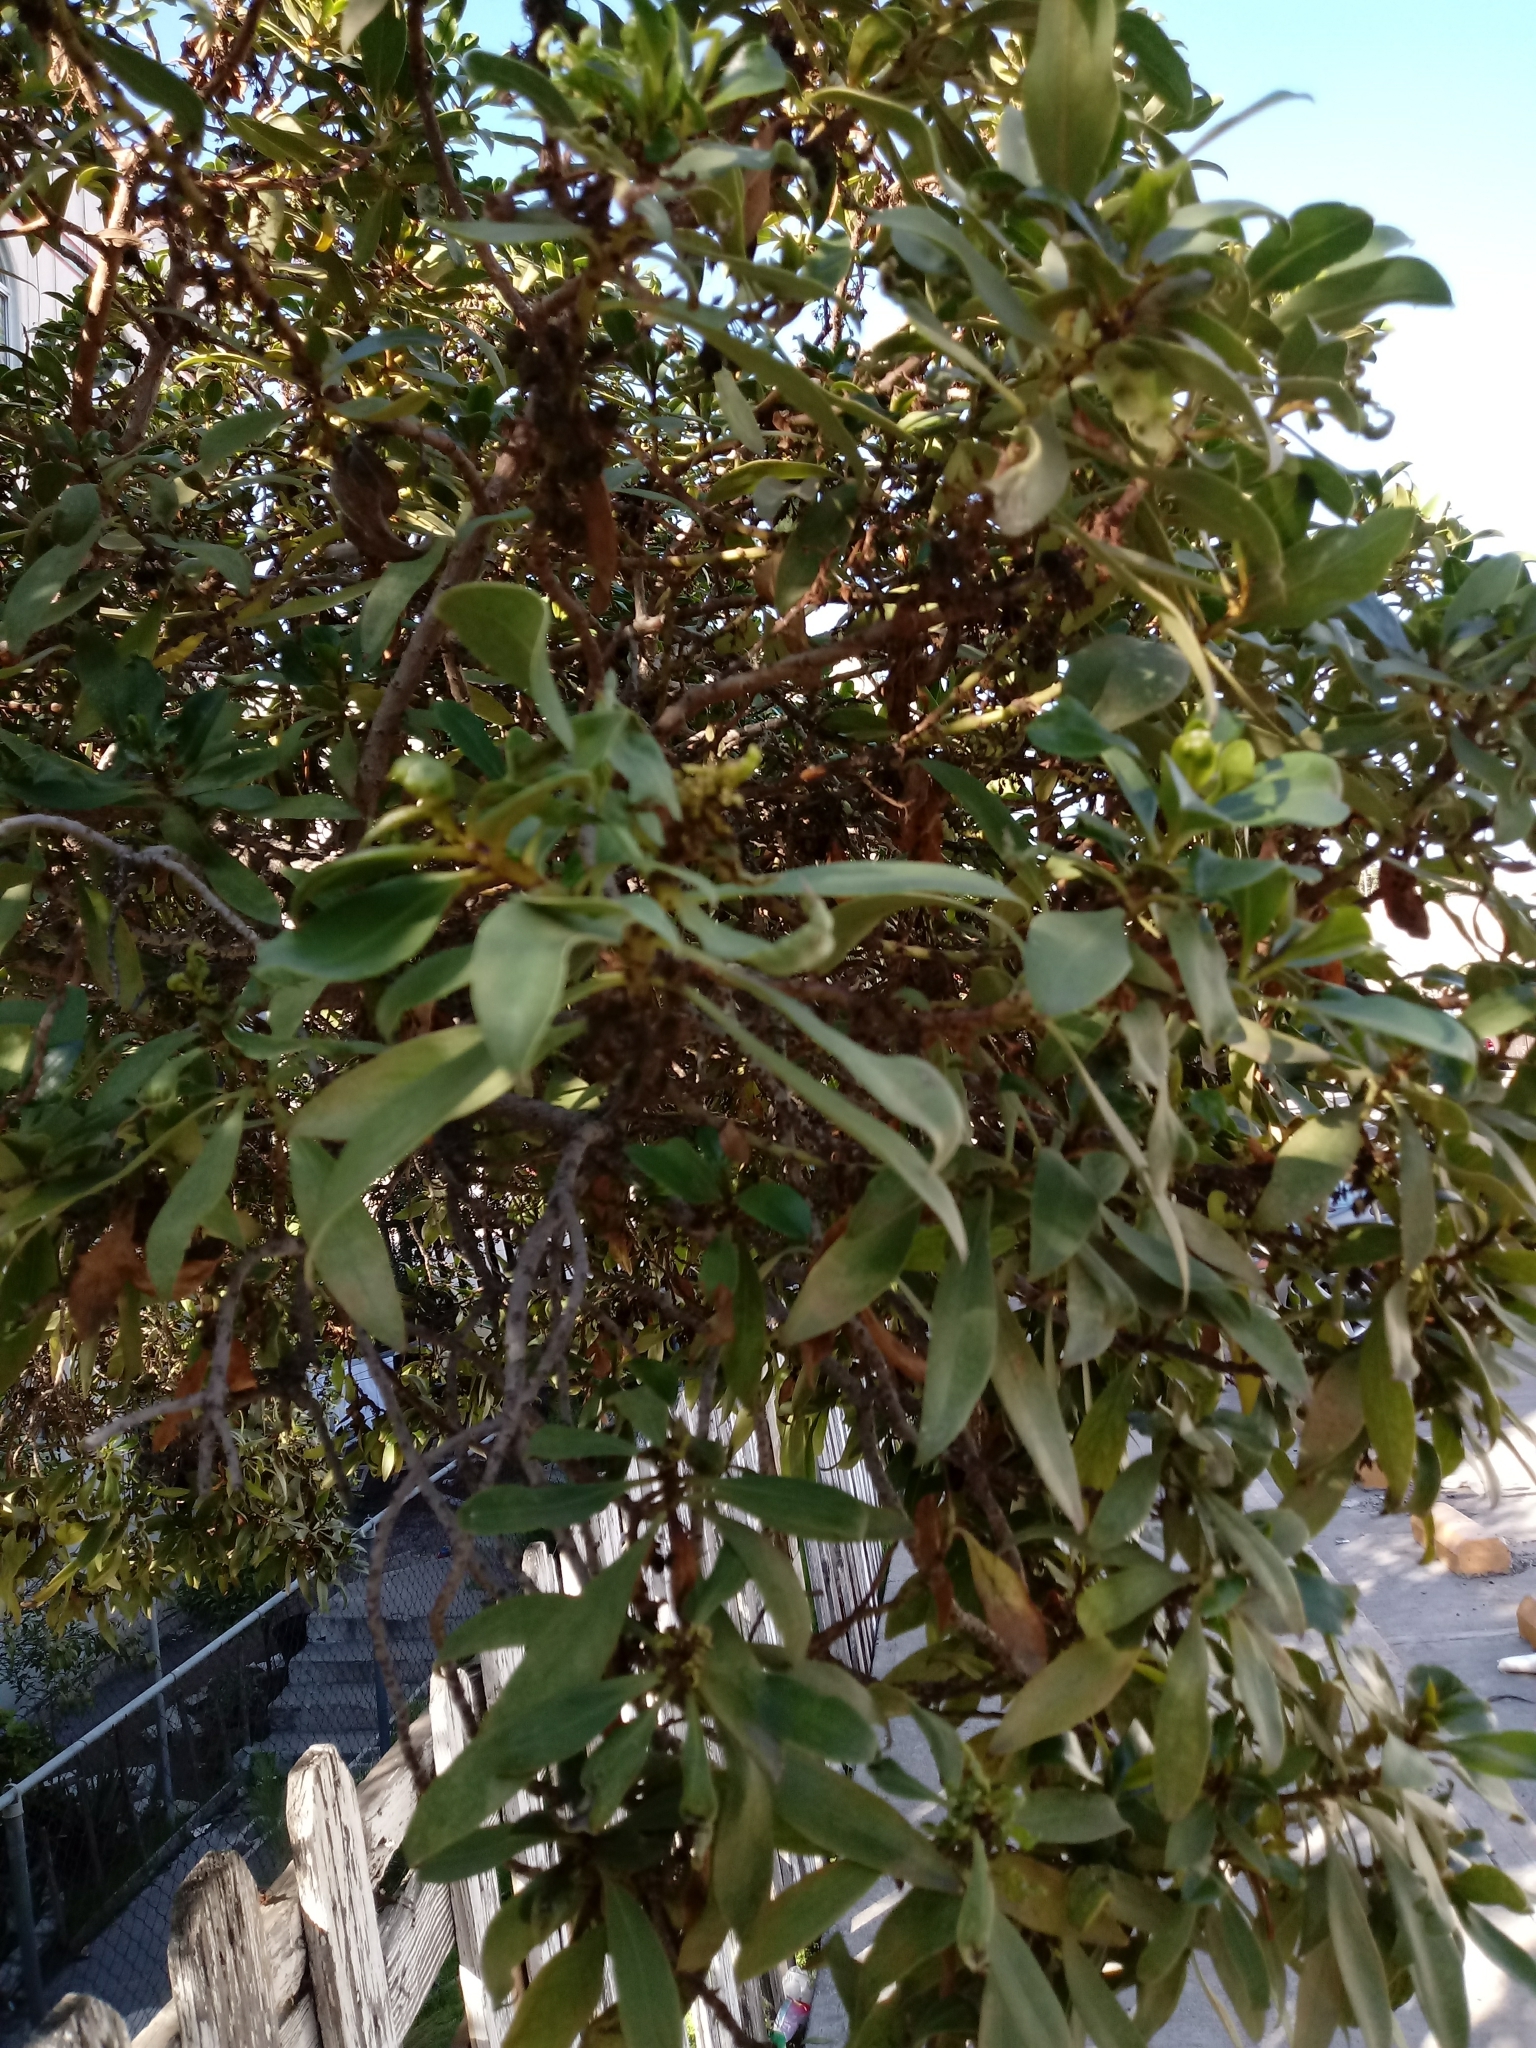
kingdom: Plantae
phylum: Tracheophyta
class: Magnoliopsida
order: Lamiales
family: Scrophulariaceae
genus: Myoporum
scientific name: Myoporum laetum
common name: Ngaio tree
